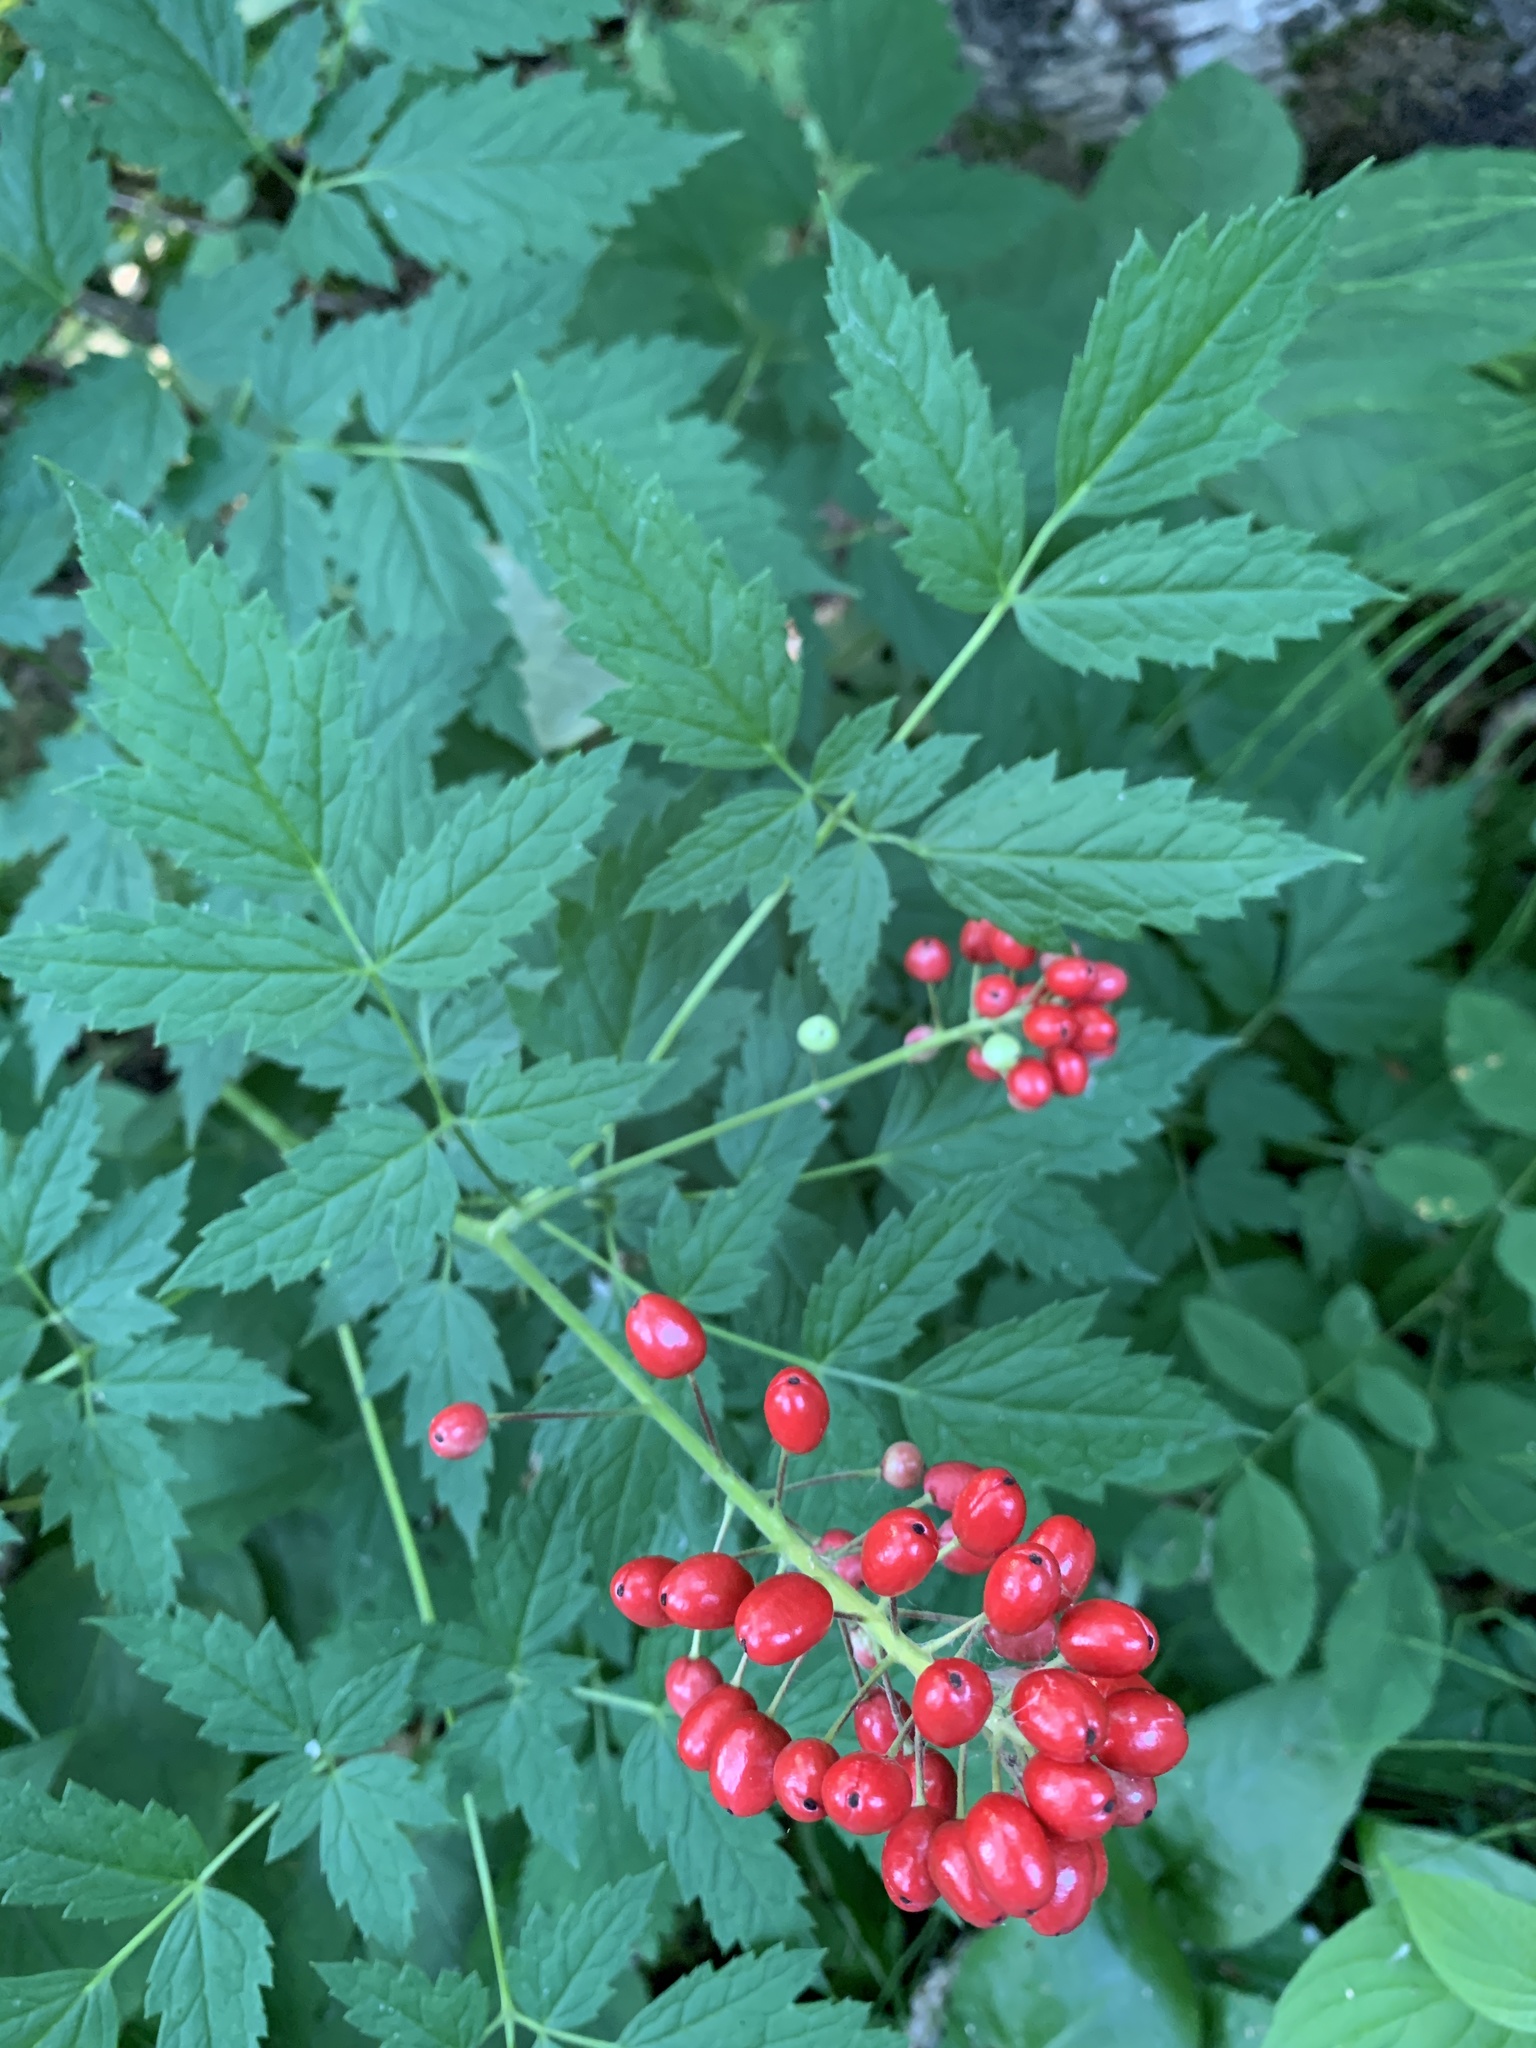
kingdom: Plantae
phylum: Tracheophyta
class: Magnoliopsida
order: Ranunculales
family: Ranunculaceae
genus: Actaea
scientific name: Actaea rubra
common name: Red baneberry
